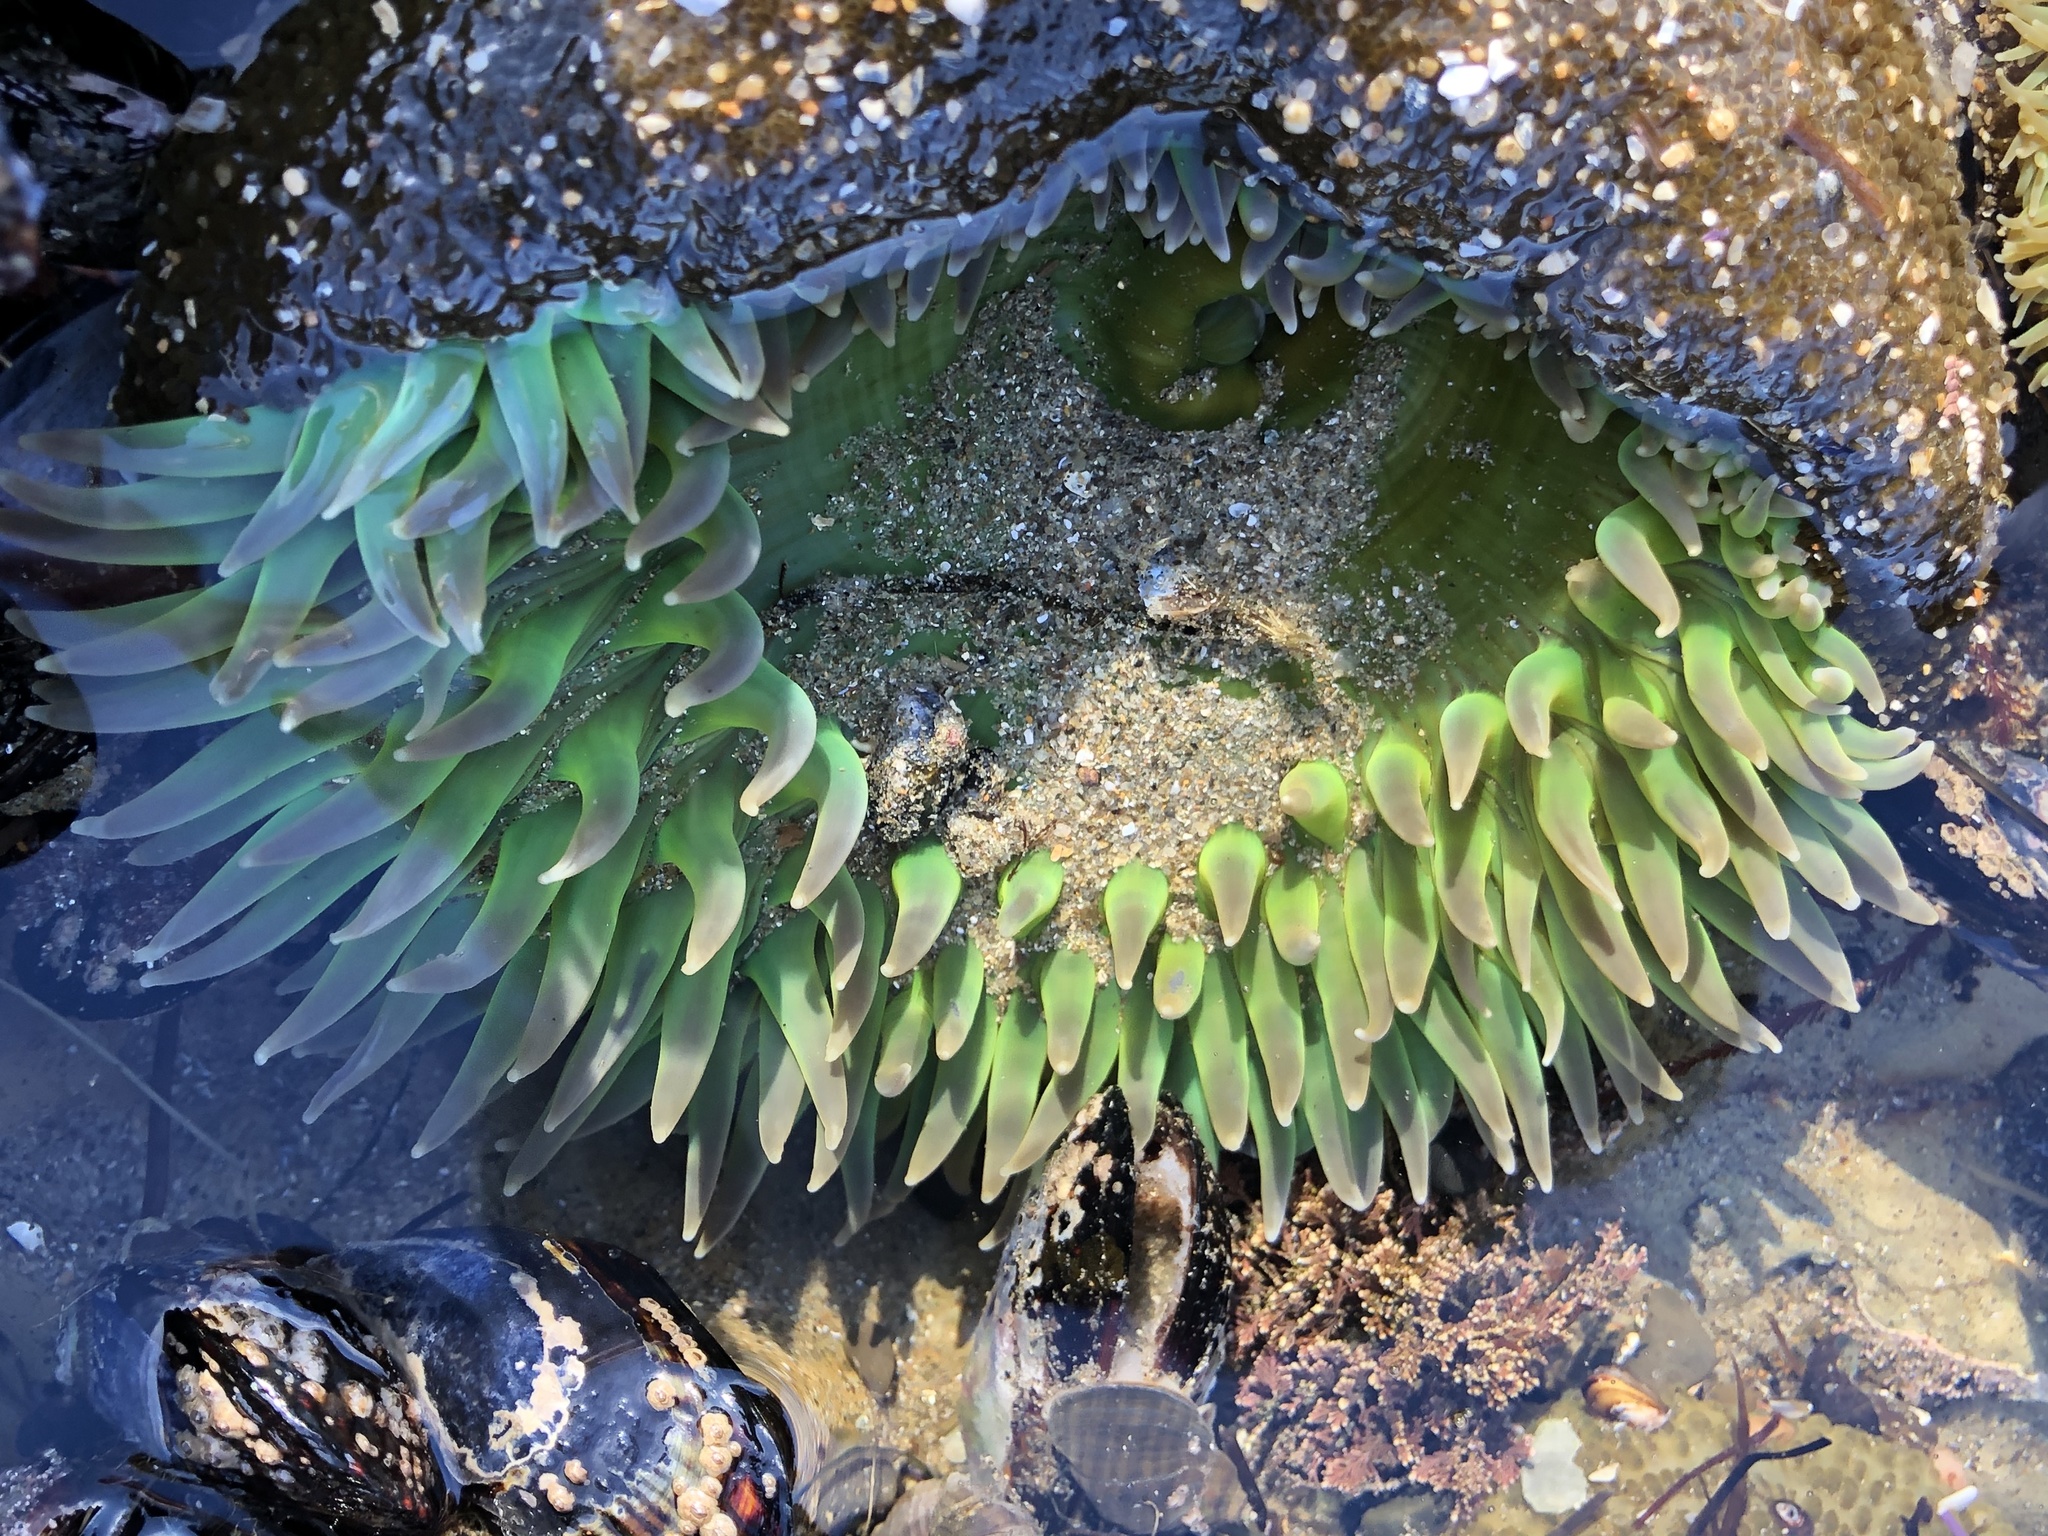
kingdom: Animalia
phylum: Cnidaria
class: Anthozoa
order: Actiniaria
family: Actiniidae
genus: Anthopleura
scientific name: Anthopleura xanthogrammica
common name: Giant green anemone
